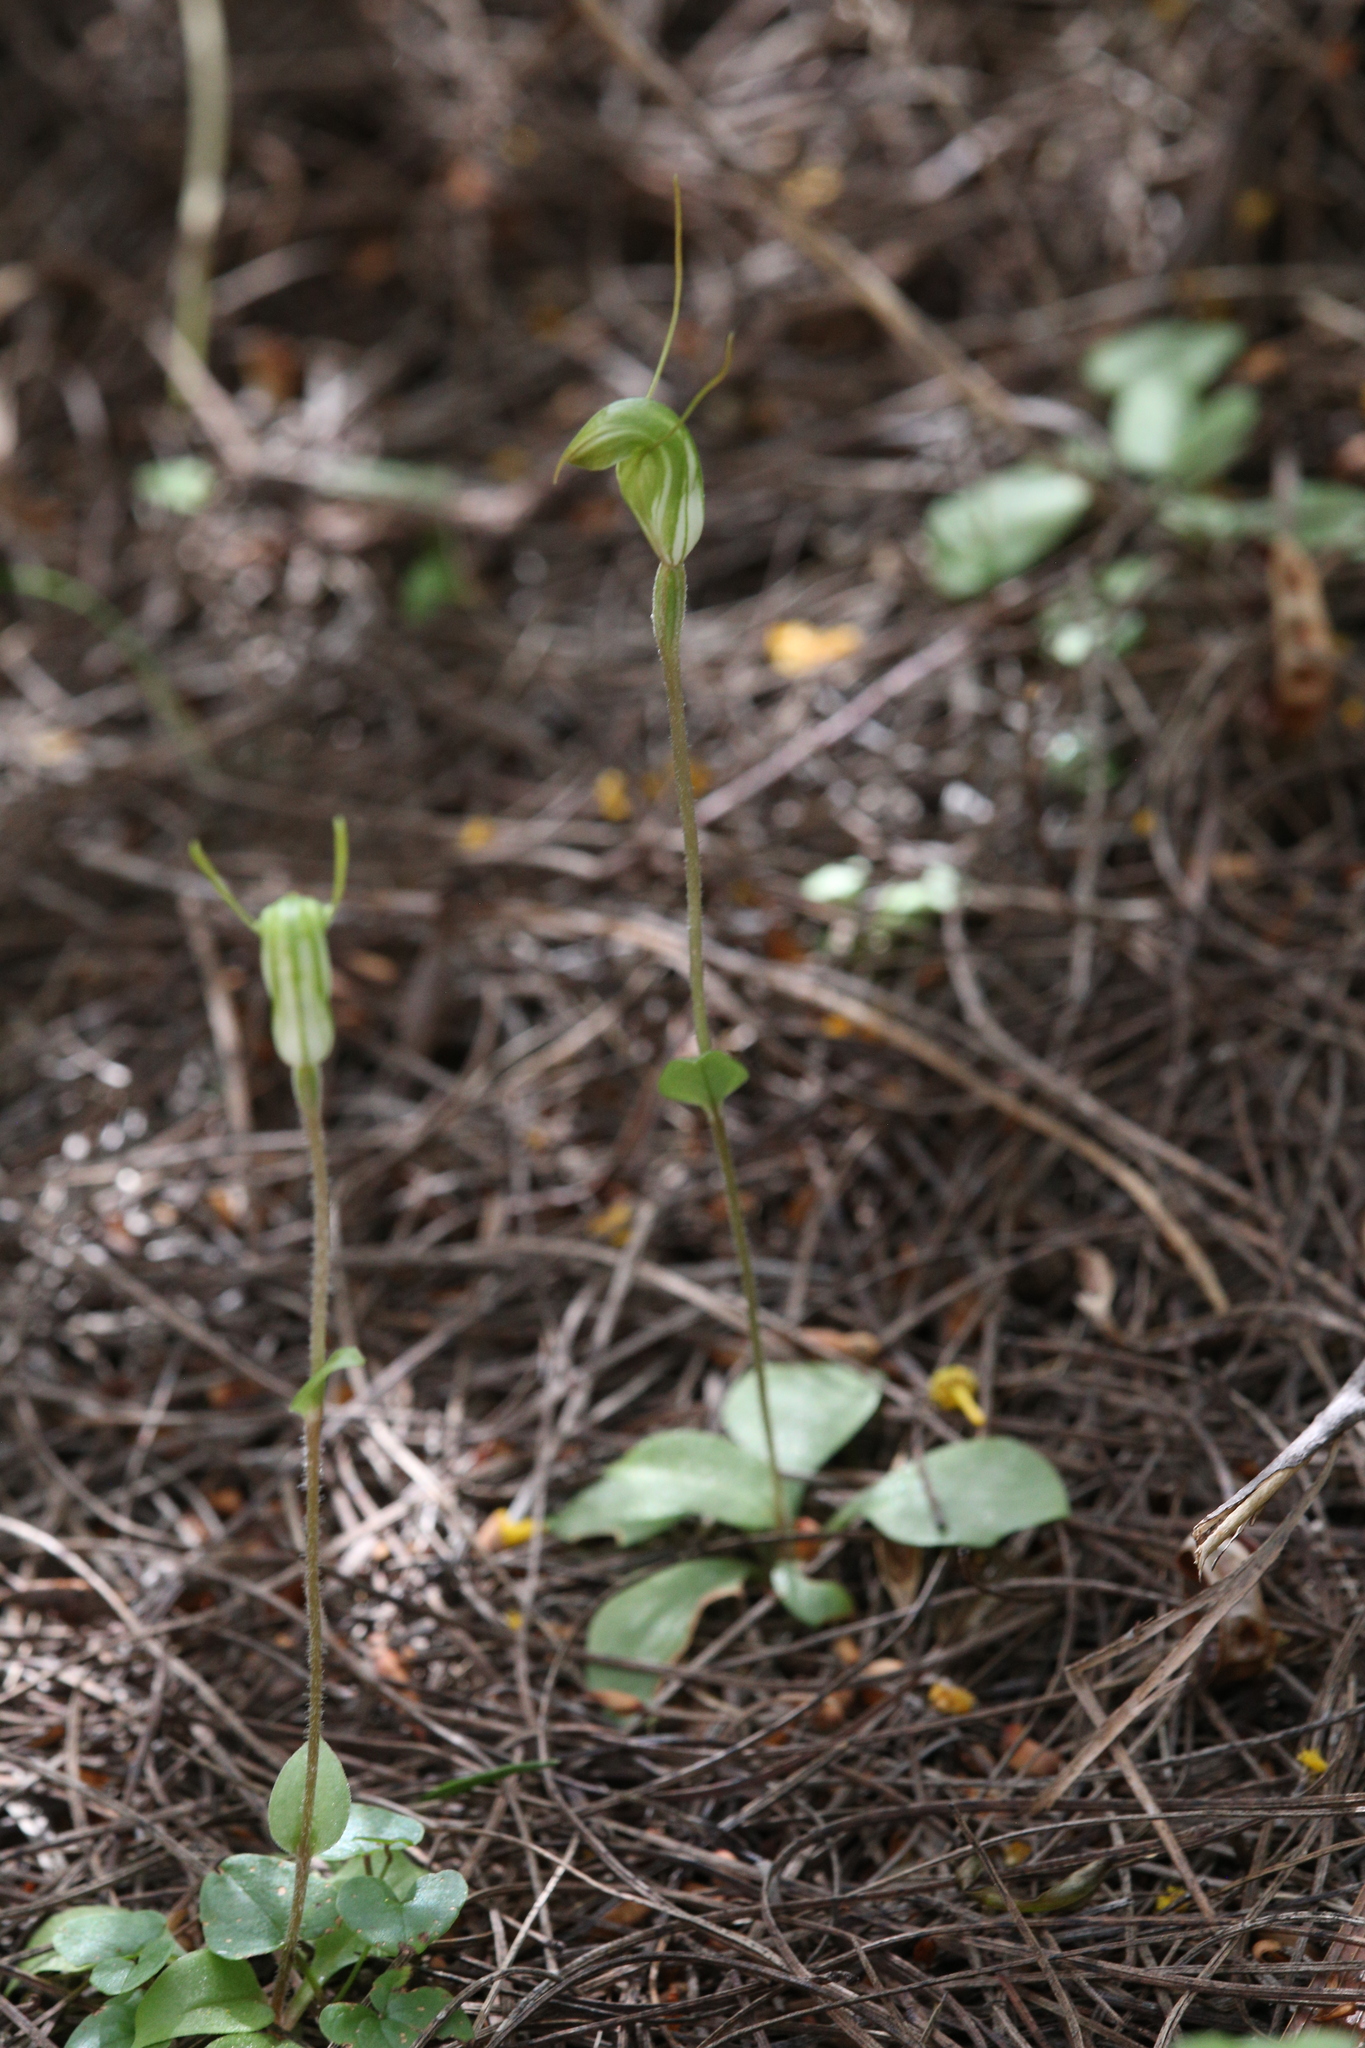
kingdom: Plantae
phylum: Tracheophyta
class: Liliopsida
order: Asparagales
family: Orchidaceae
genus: Pterostylis
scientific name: Pterostylis setulosa
